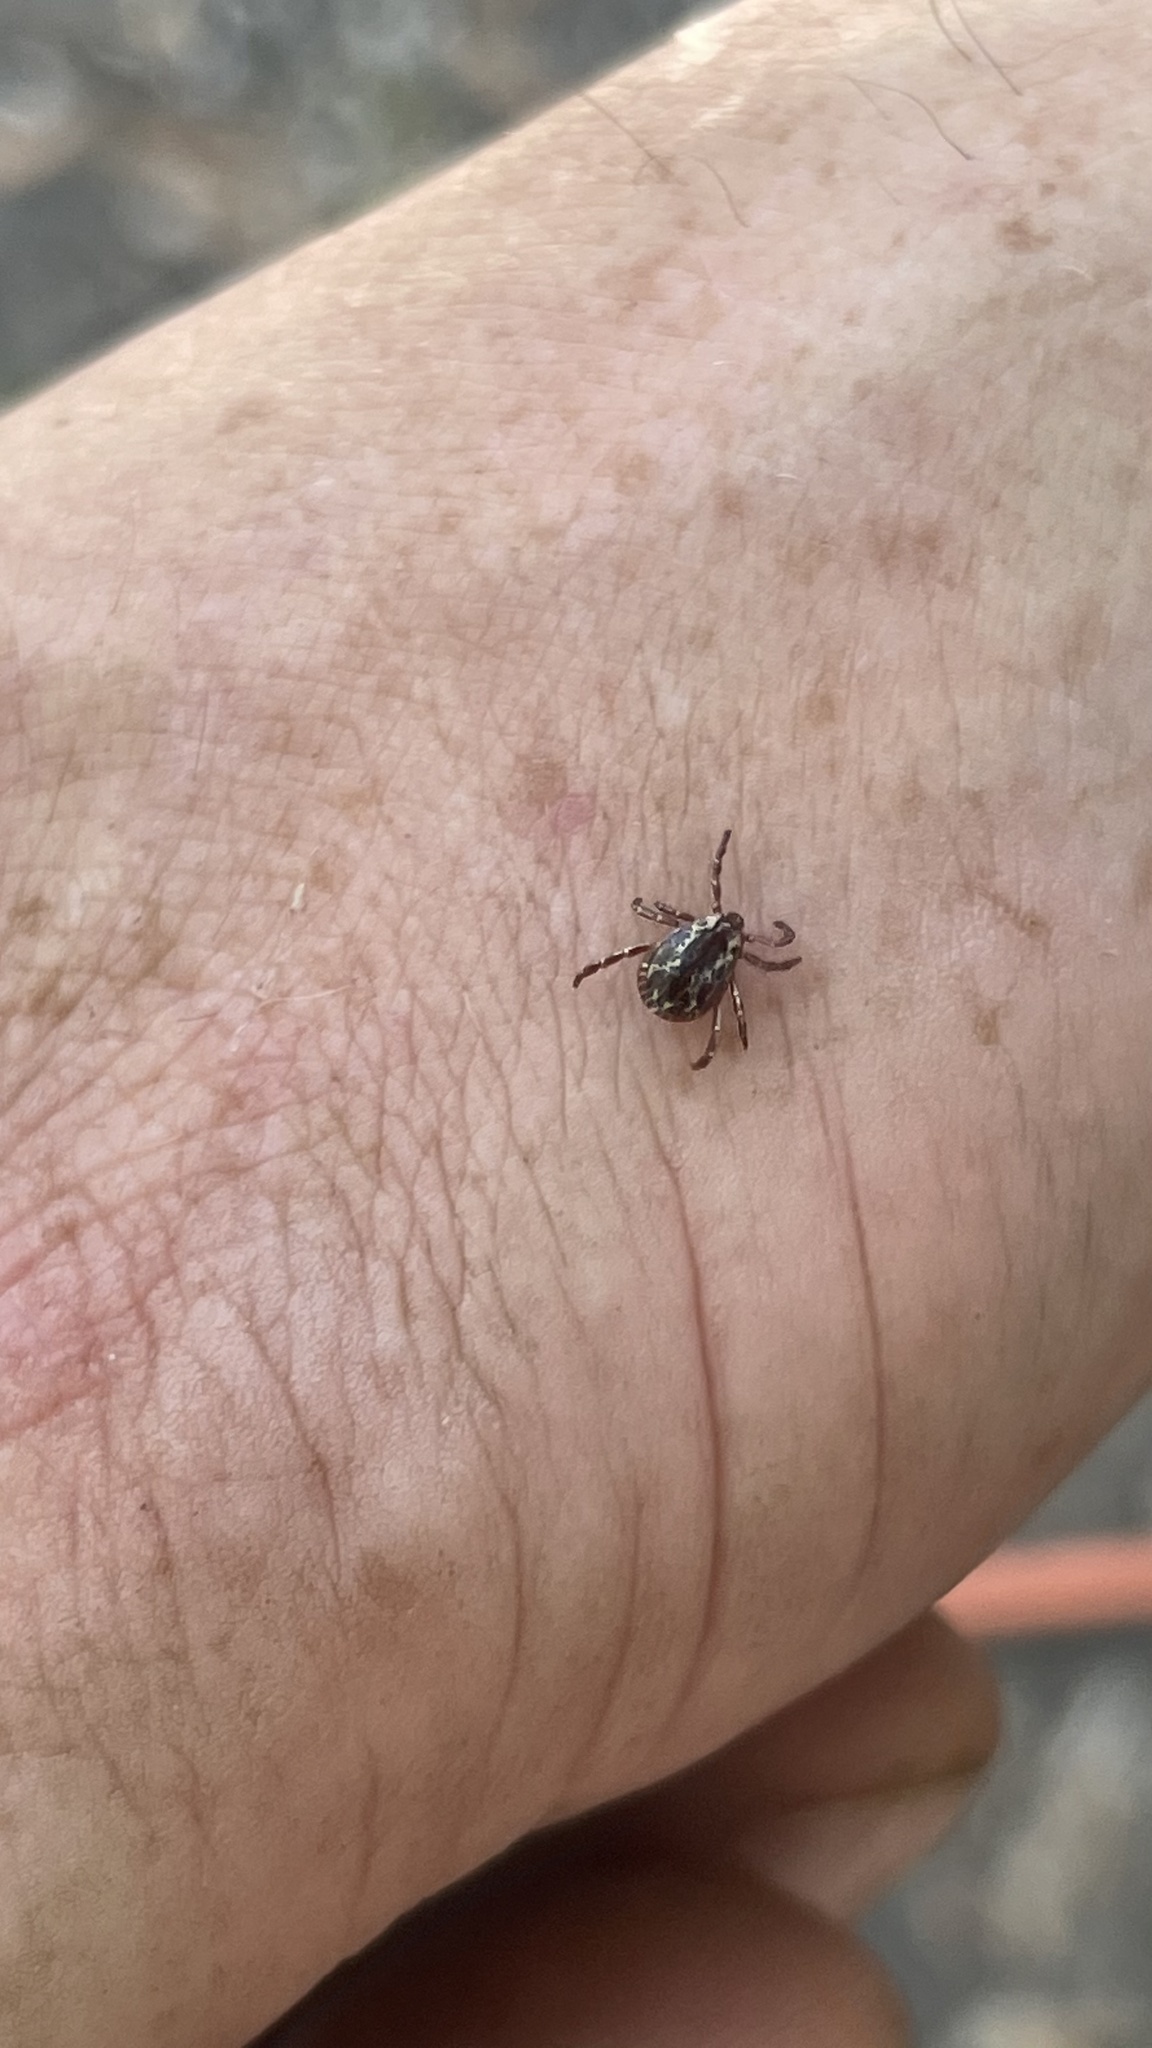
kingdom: Animalia
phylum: Arthropoda
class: Arachnida
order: Ixodida
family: Ixodidae
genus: Dermacentor
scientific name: Dermacentor variabilis
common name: American dog tick
